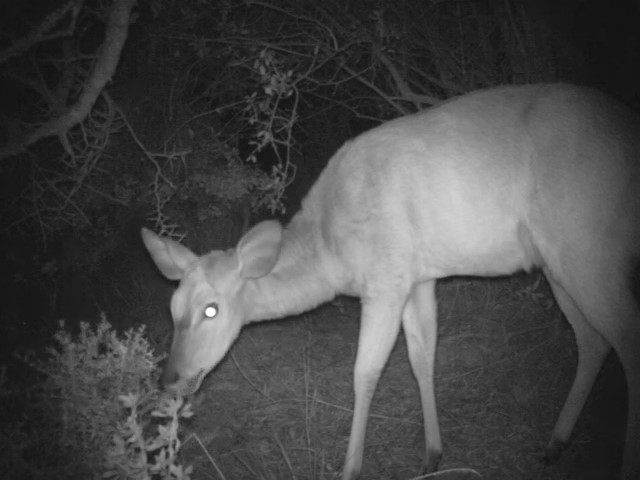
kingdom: Animalia
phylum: Chordata
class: Mammalia
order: Artiodactyla
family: Bovidae
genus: Tragelaphus
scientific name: Tragelaphus angasii
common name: Nyala
